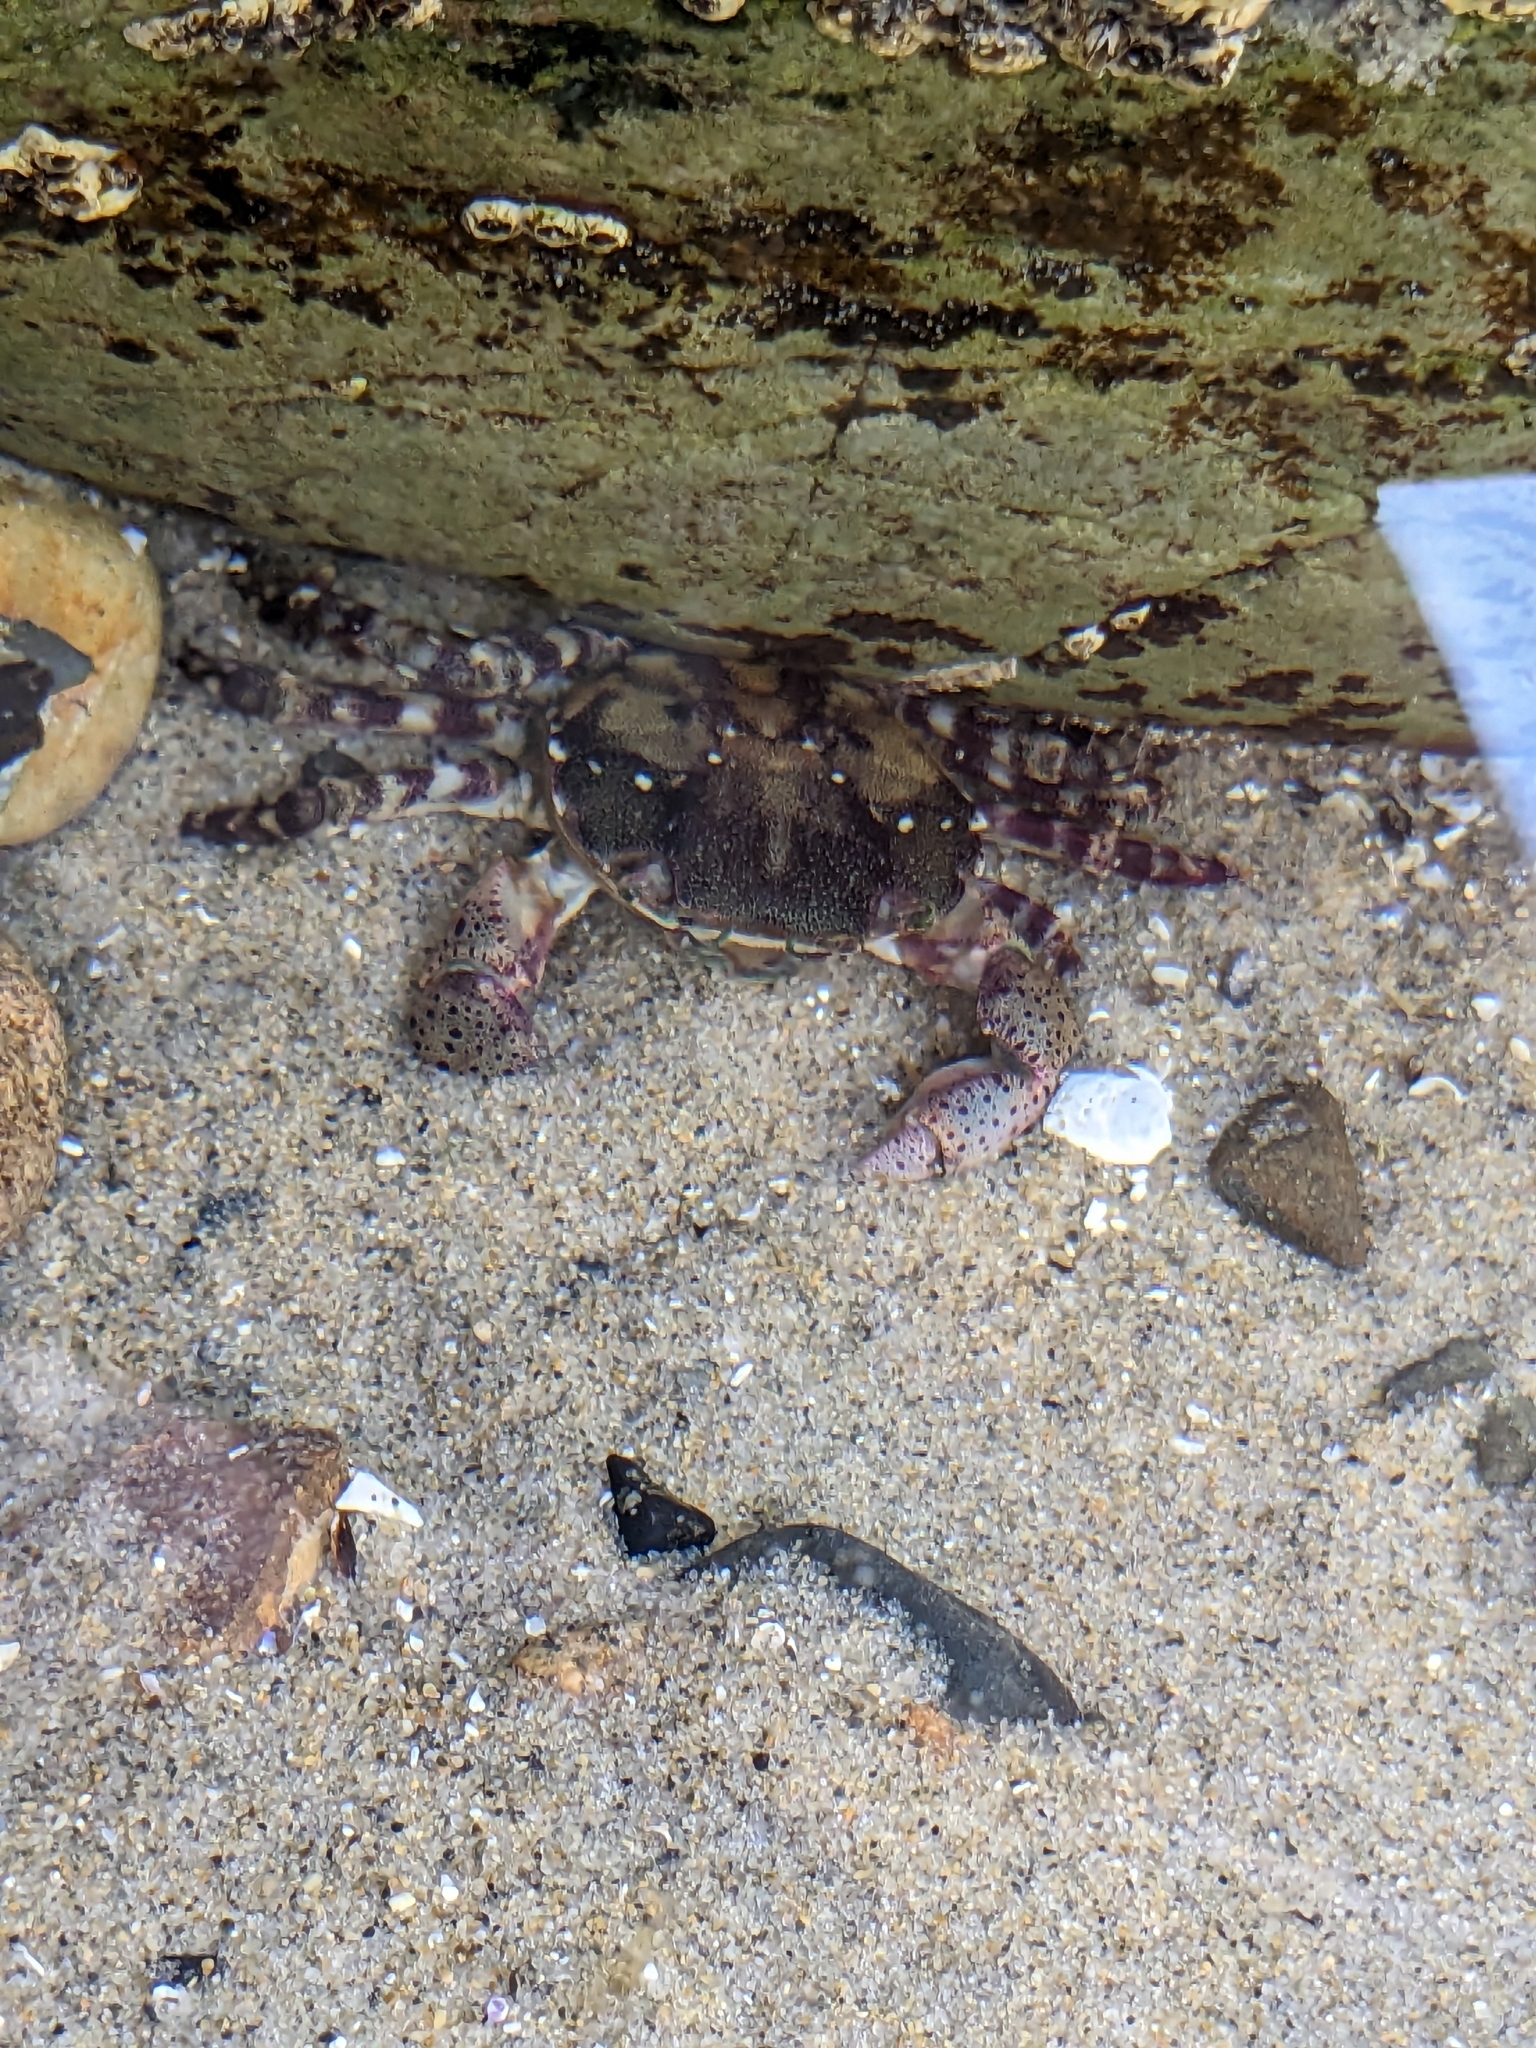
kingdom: Animalia
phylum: Arthropoda
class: Malacostraca
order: Decapoda
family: Varunidae
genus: Hemigrapsus
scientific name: Hemigrapsus sanguineus
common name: Asian shore crab
